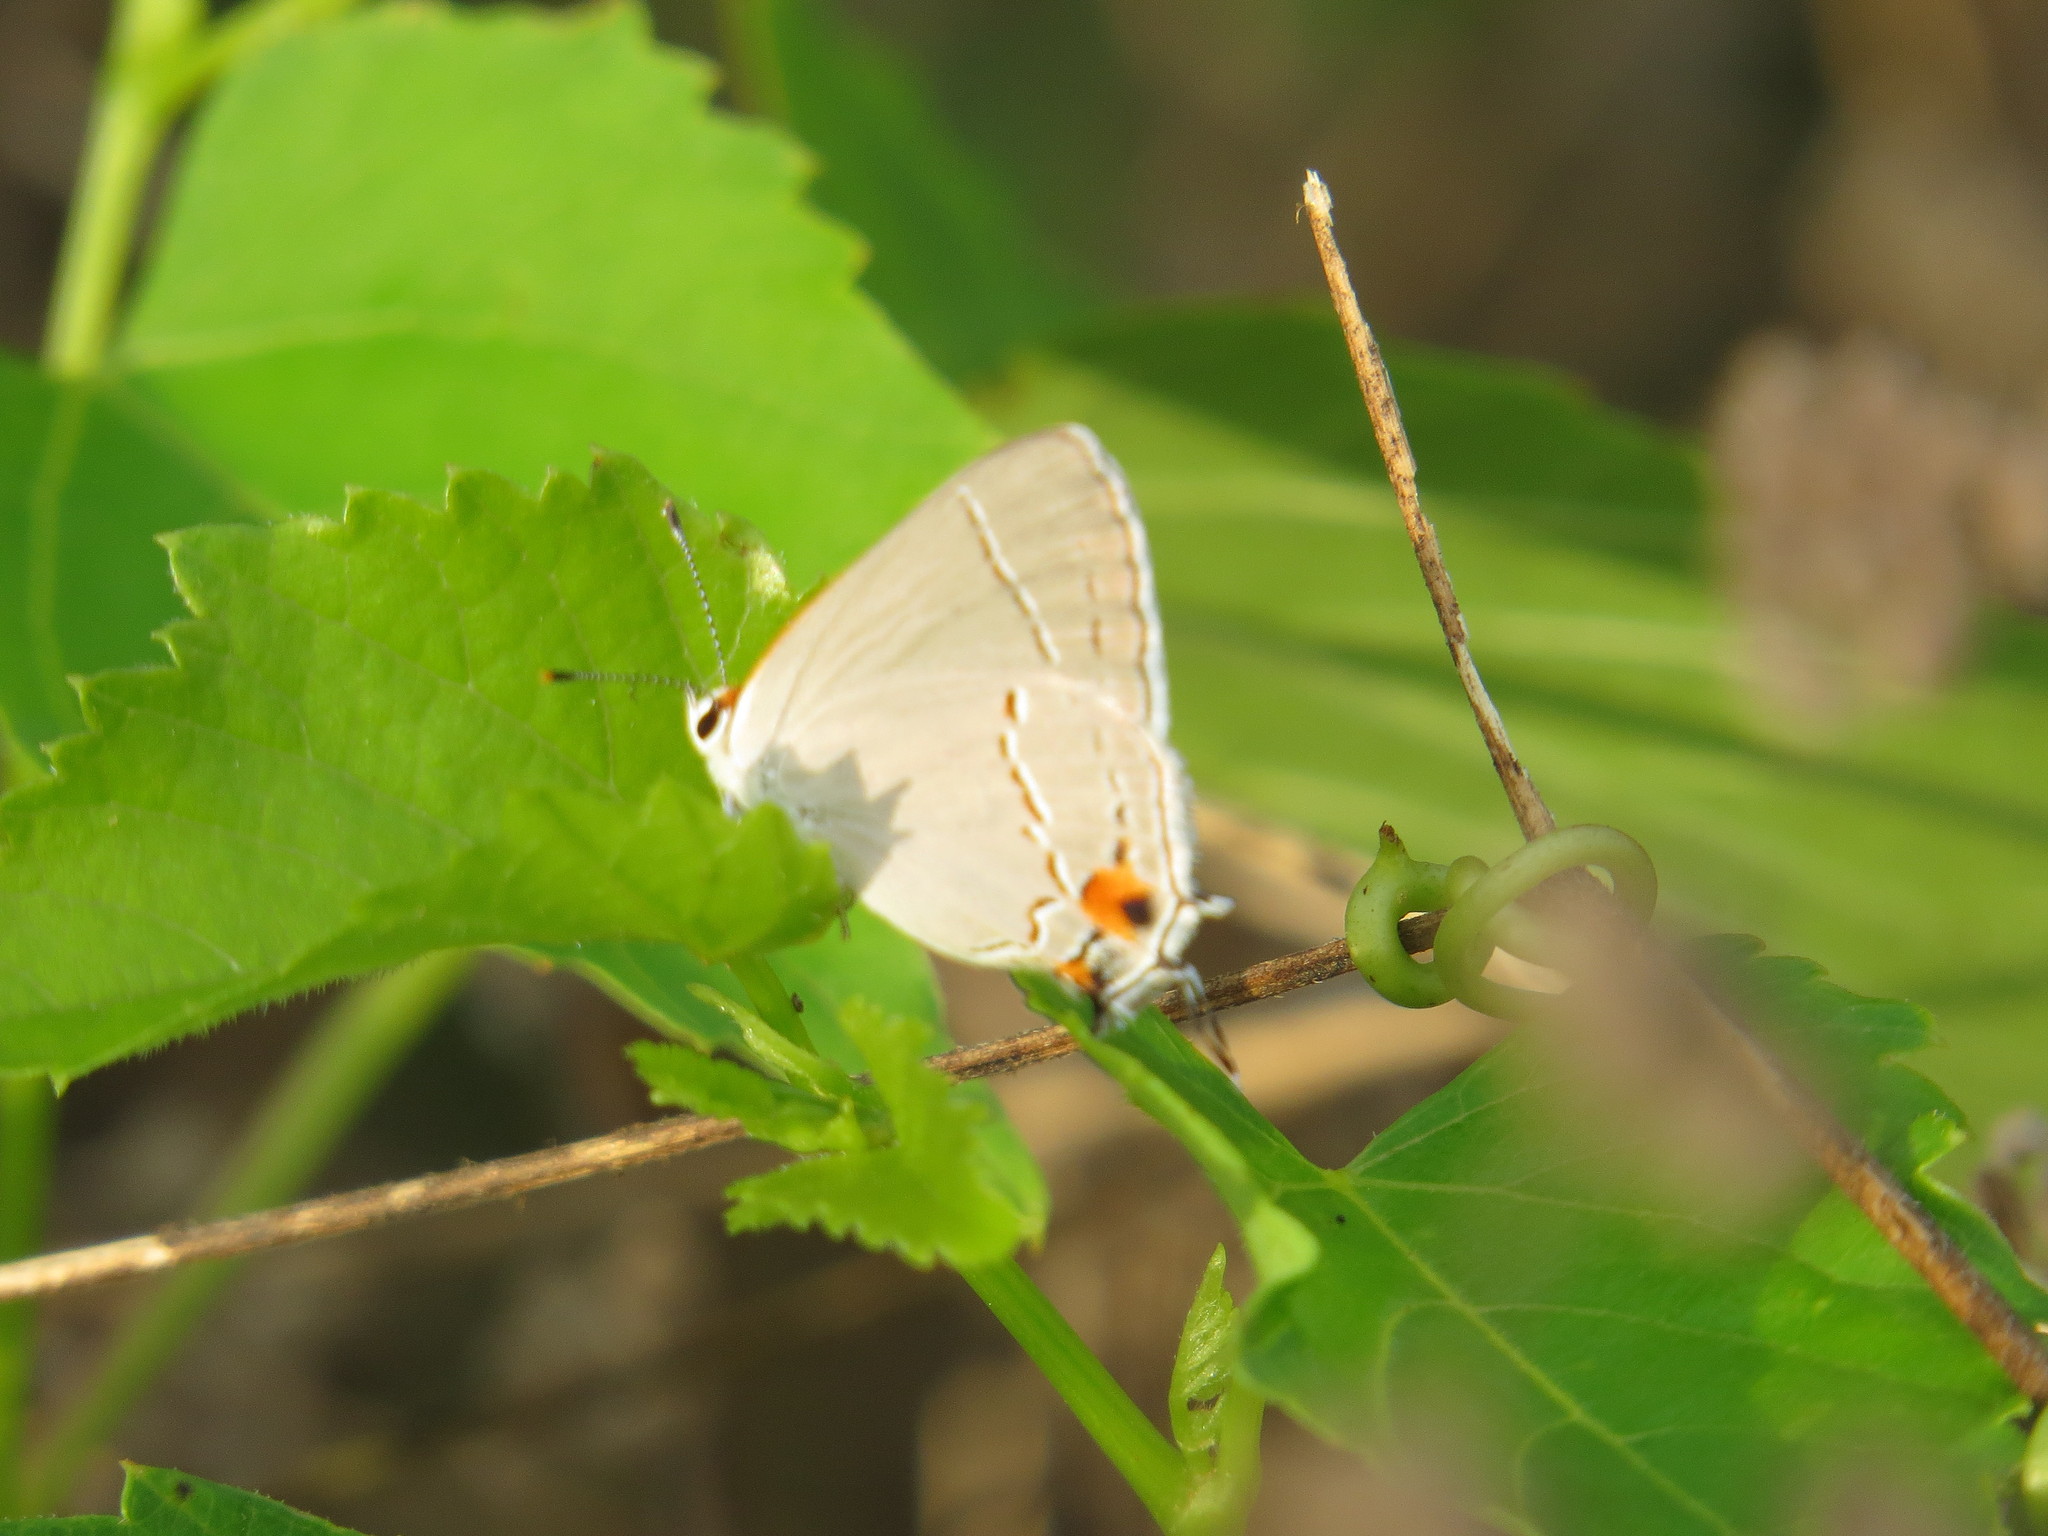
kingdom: Animalia
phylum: Arthropoda
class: Insecta
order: Lepidoptera
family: Lycaenidae
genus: Strymon
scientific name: Strymon melinus
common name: Gray hairstreak
